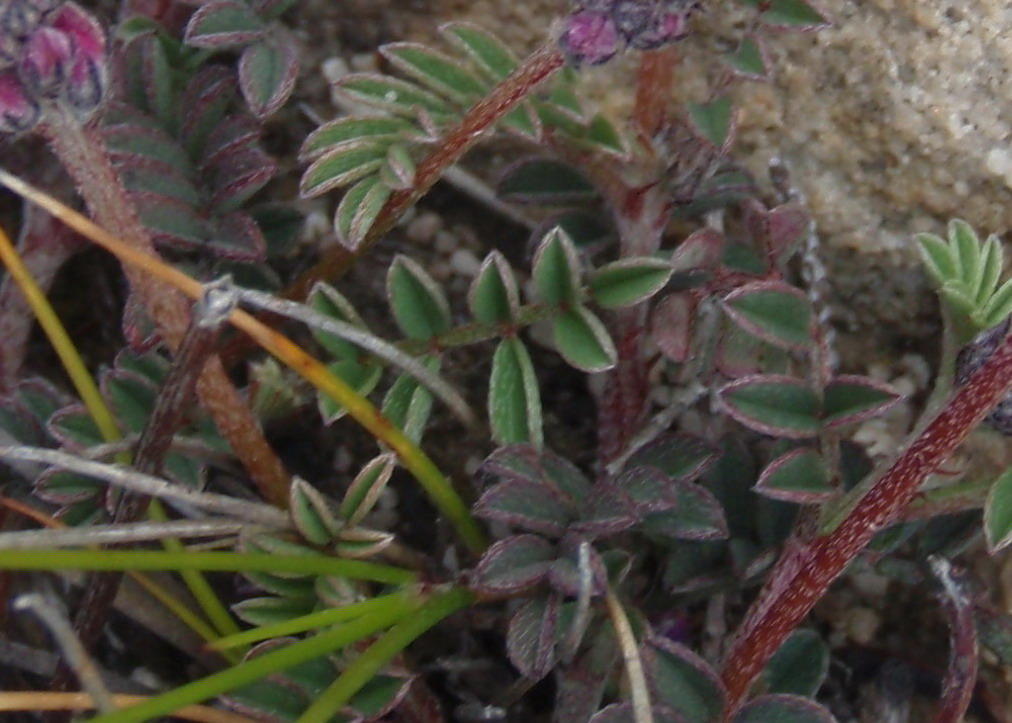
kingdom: Plantae
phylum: Tracheophyta
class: Magnoliopsida
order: Fabales
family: Fabaceae
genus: Indigofera
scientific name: Indigofera declinata
